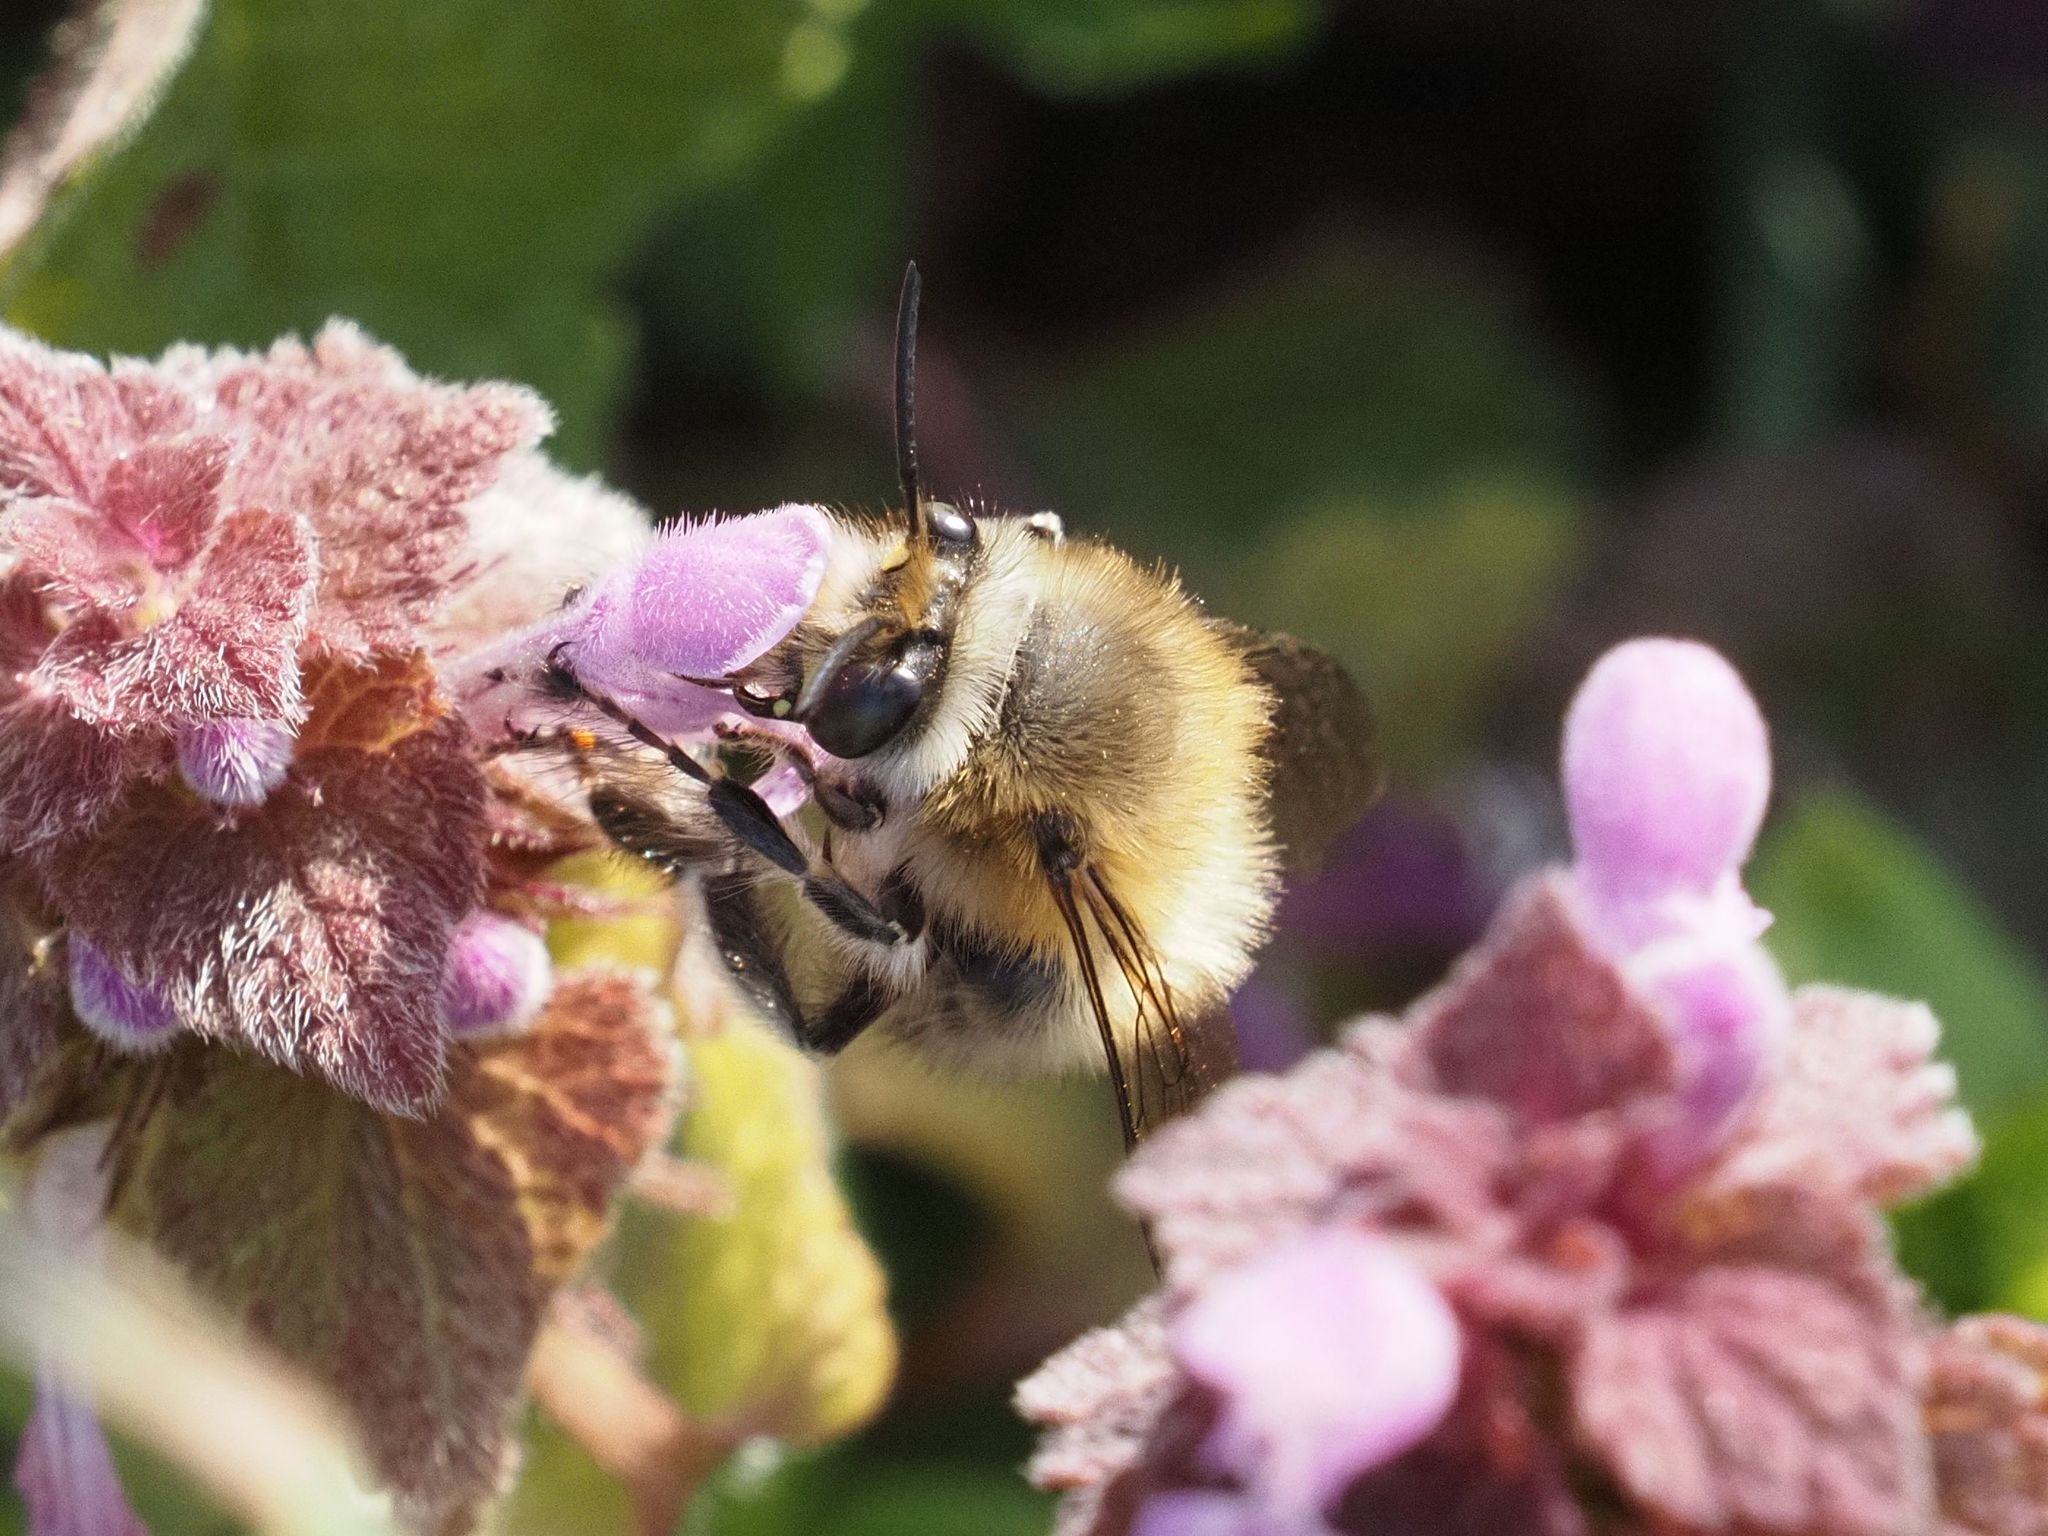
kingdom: Animalia
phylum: Arthropoda
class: Insecta
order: Hymenoptera
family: Apidae
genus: Anthophora
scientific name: Anthophora plumipes
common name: Hairy-footed flower bee
